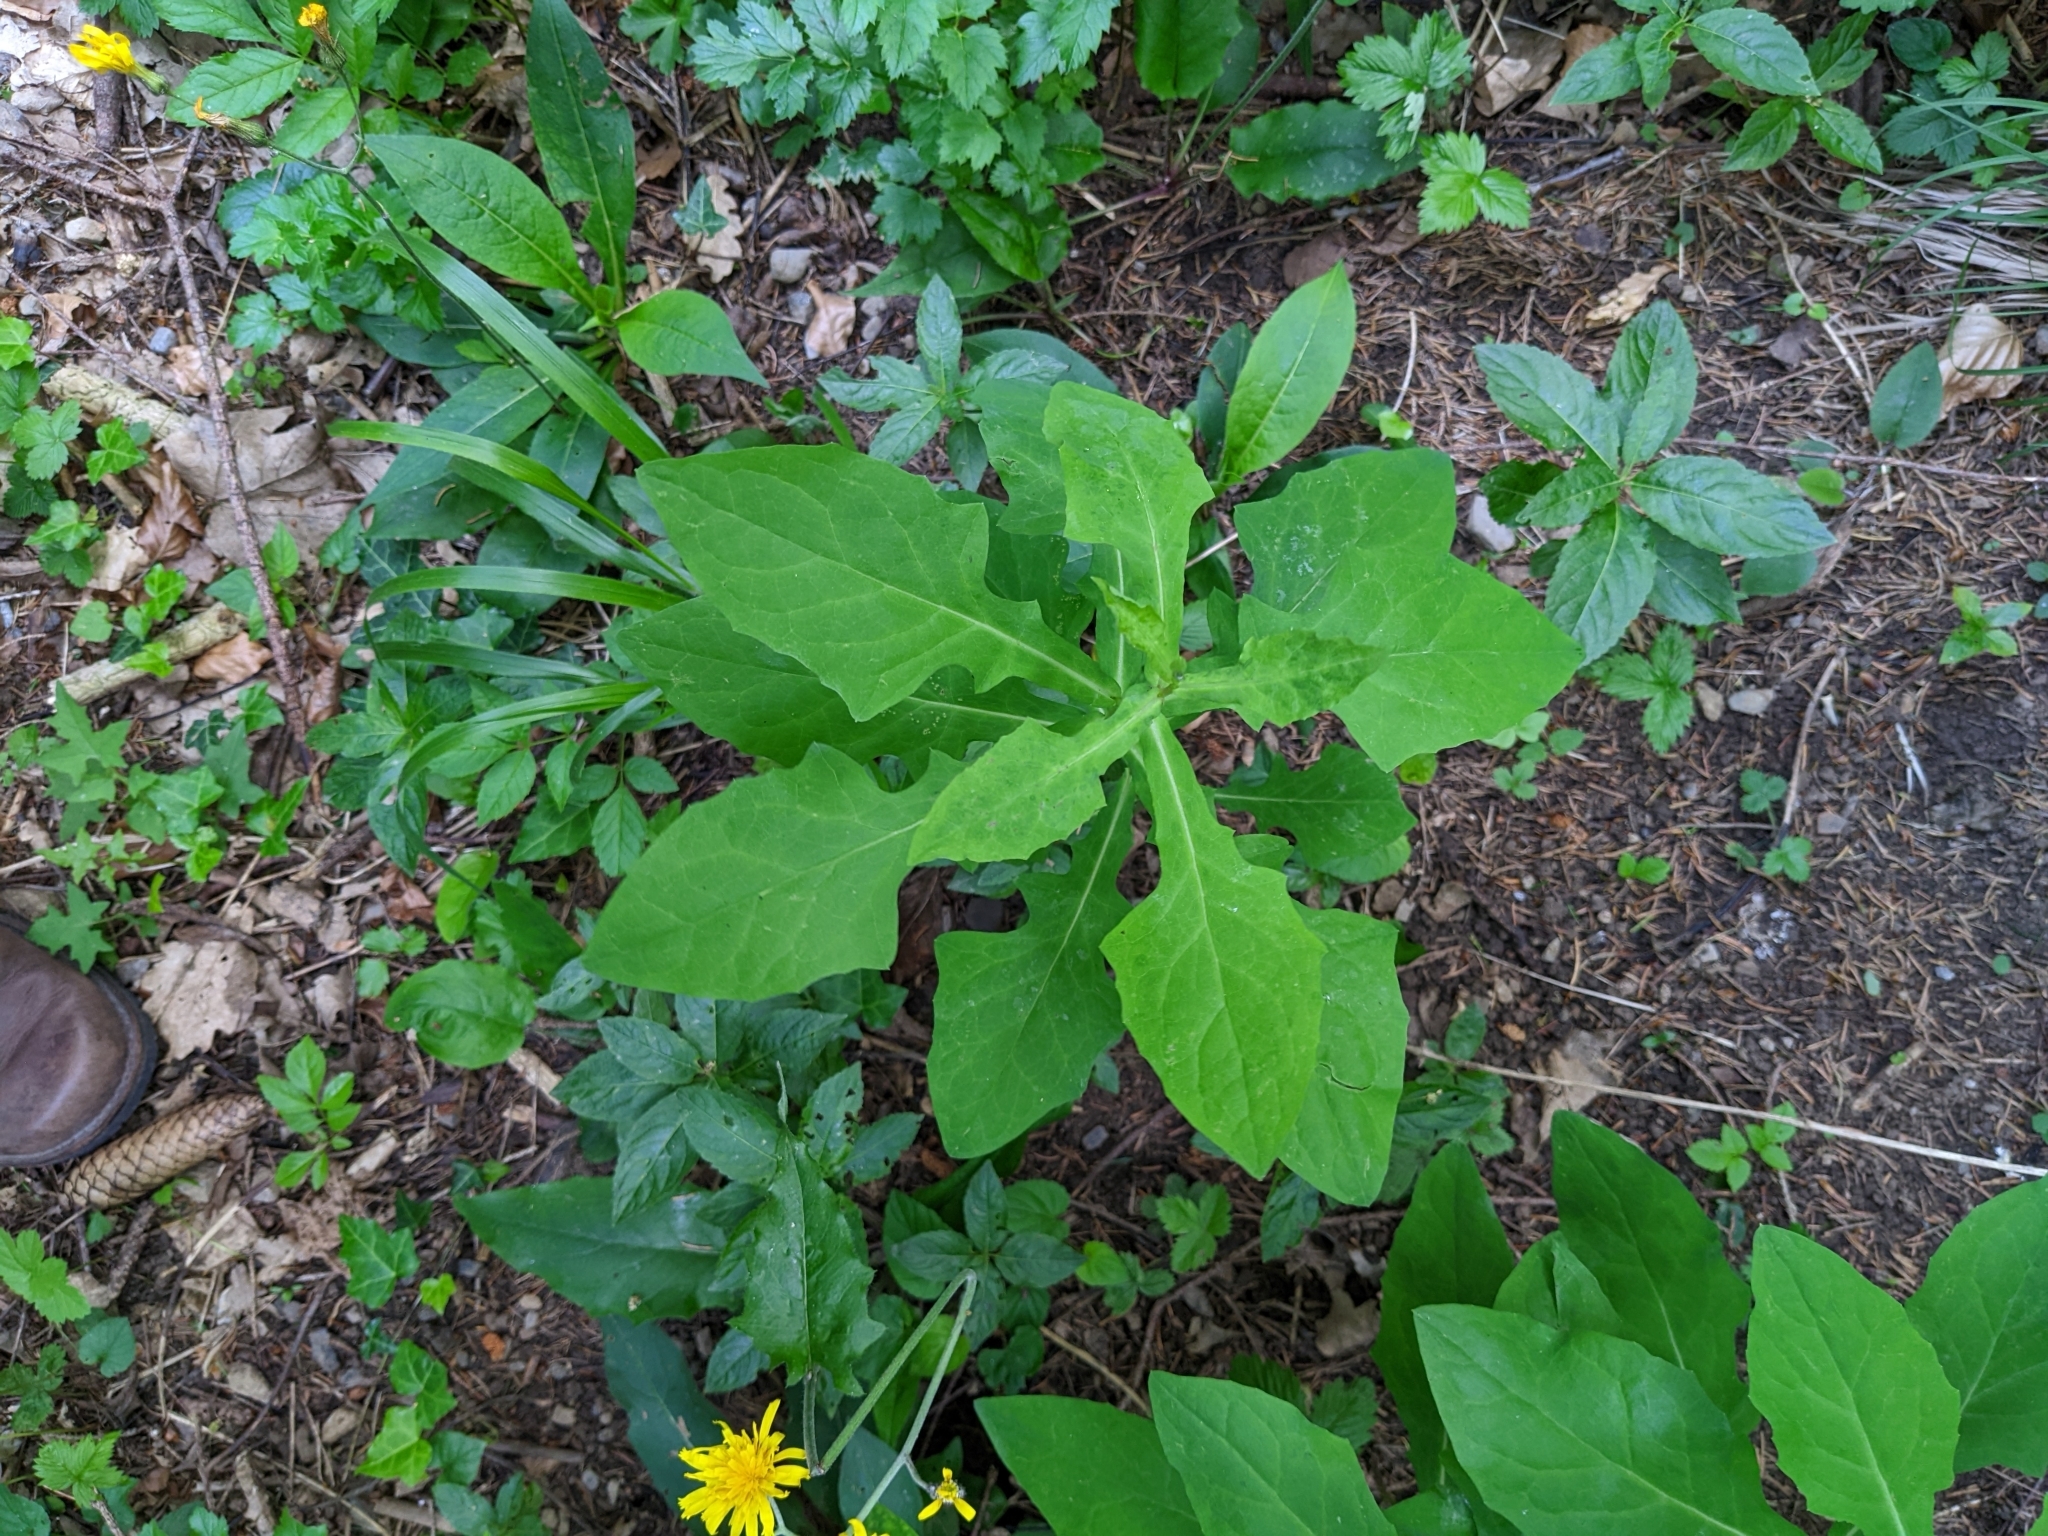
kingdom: Plantae
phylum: Tracheophyta
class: Magnoliopsida
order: Asterales
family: Asteraceae
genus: Prenanthes
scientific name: Prenanthes purpurea
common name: Purple lettuce
